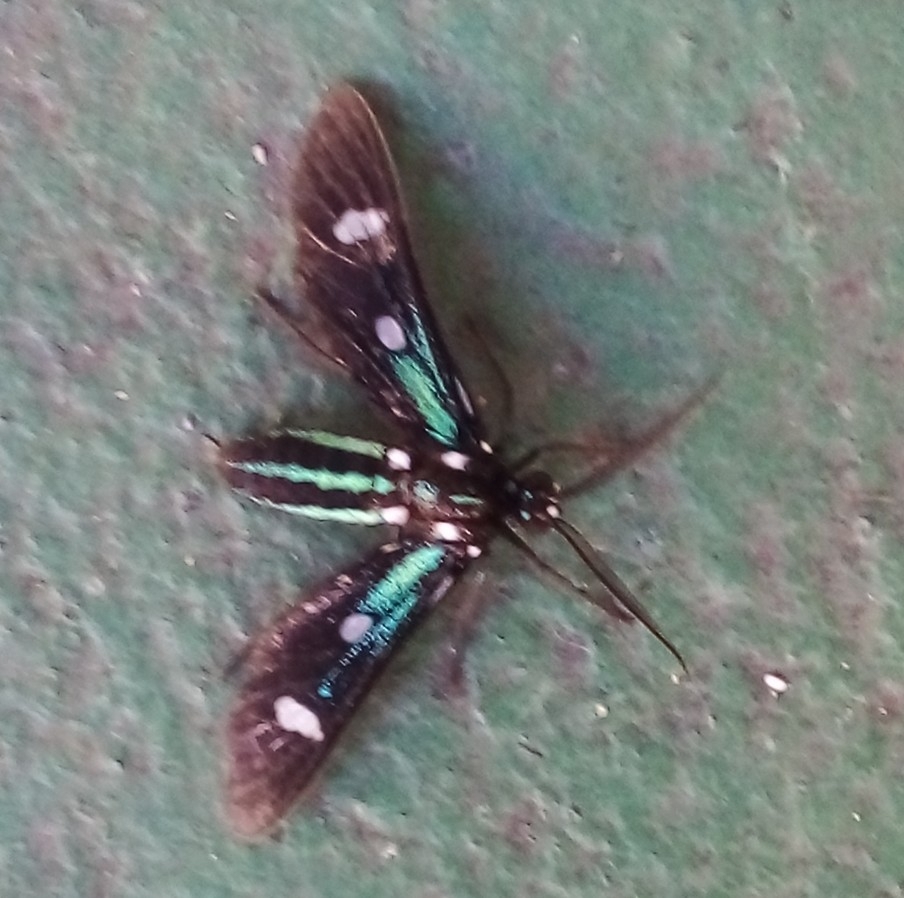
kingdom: Animalia
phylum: Arthropoda
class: Insecta
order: Lepidoptera
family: Erebidae
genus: Leucotmemis
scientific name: Leucotmemis nexa
